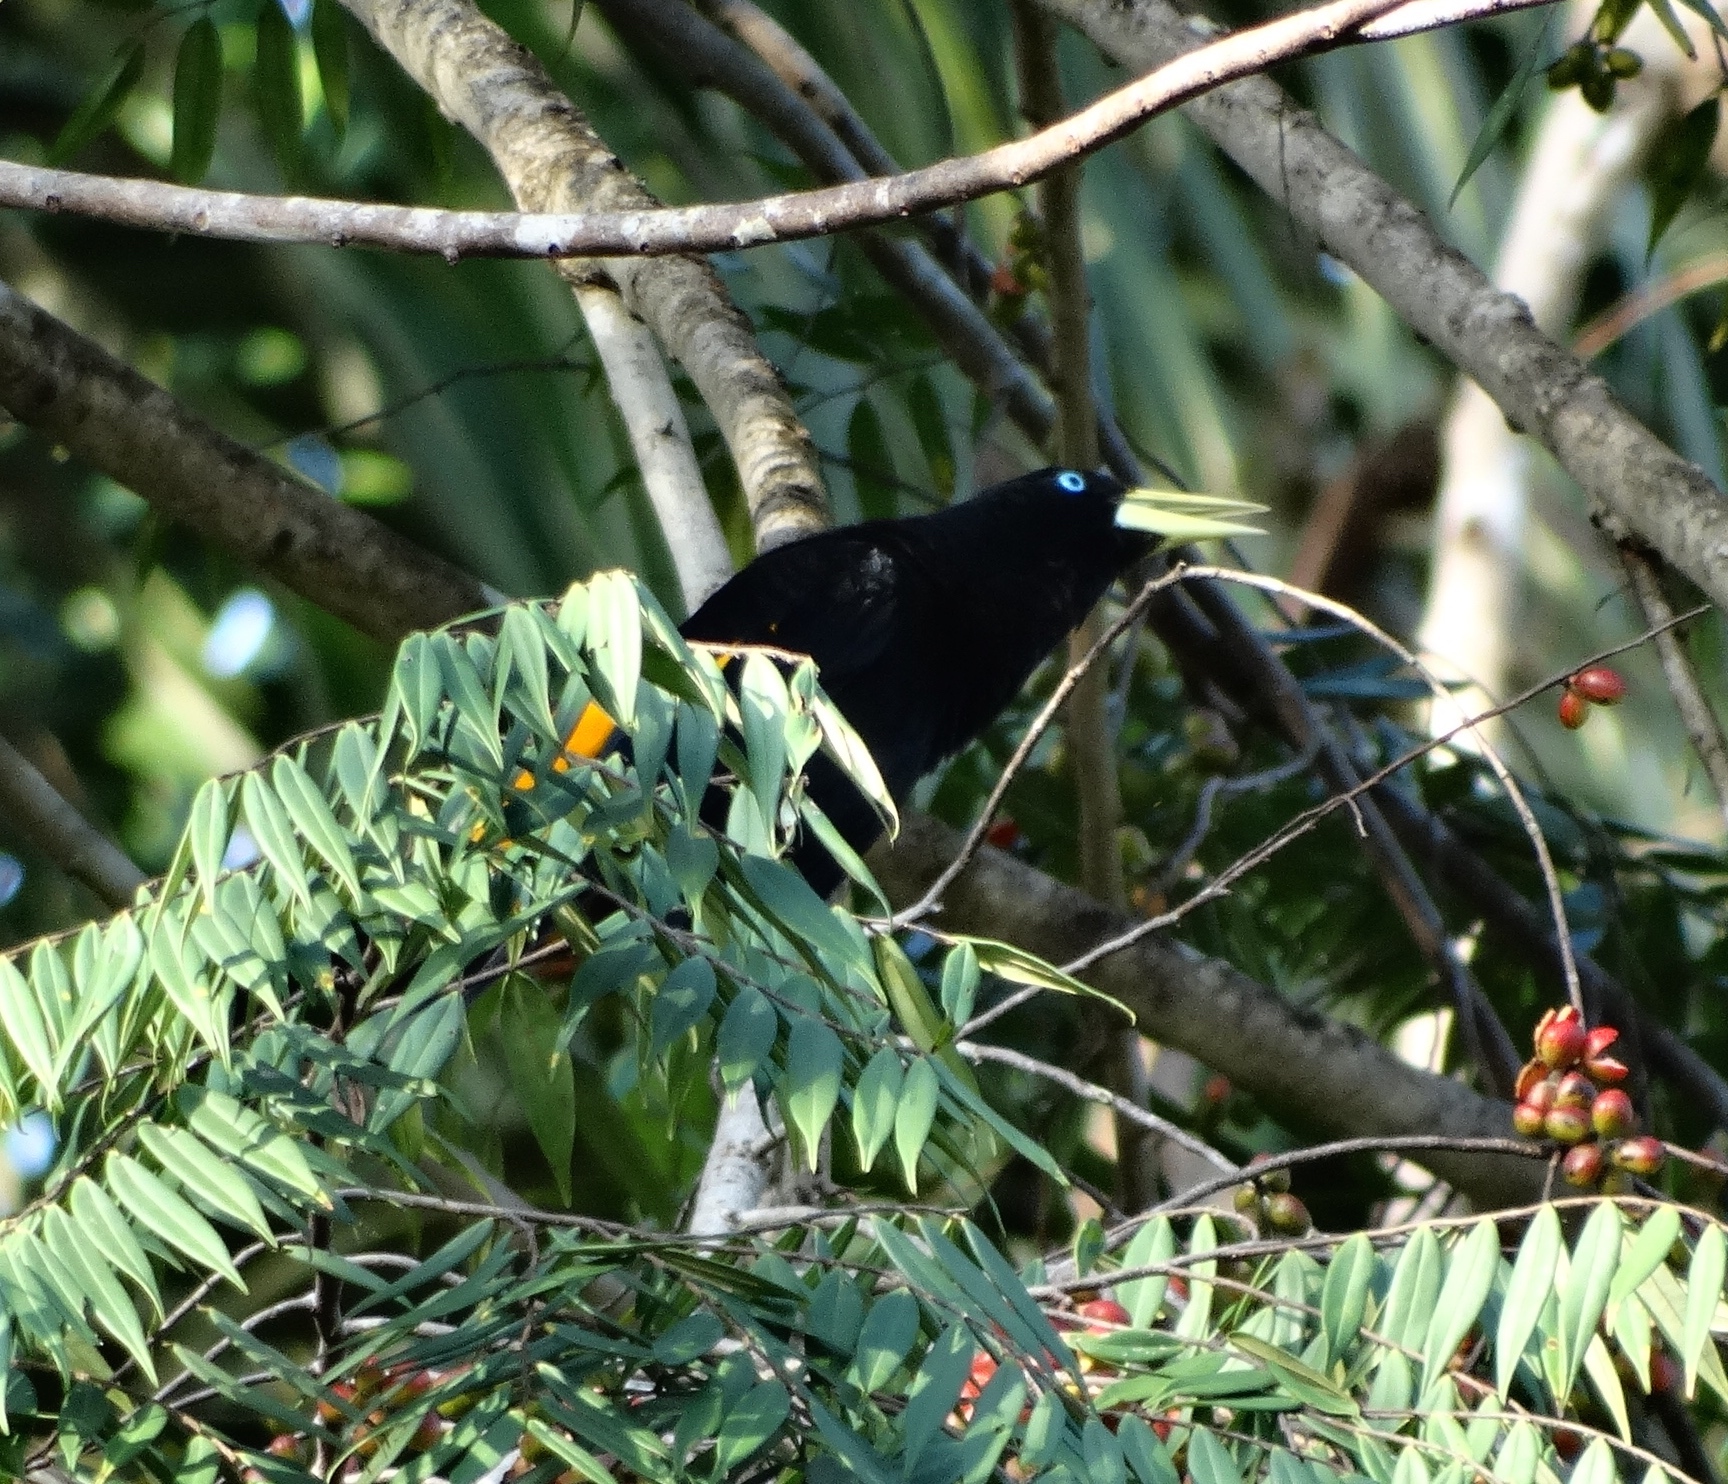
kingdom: Animalia
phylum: Chordata
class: Aves
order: Passeriformes
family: Icteridae
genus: Cacicus
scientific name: Cacicus cela
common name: Yellow-rumped cacique
